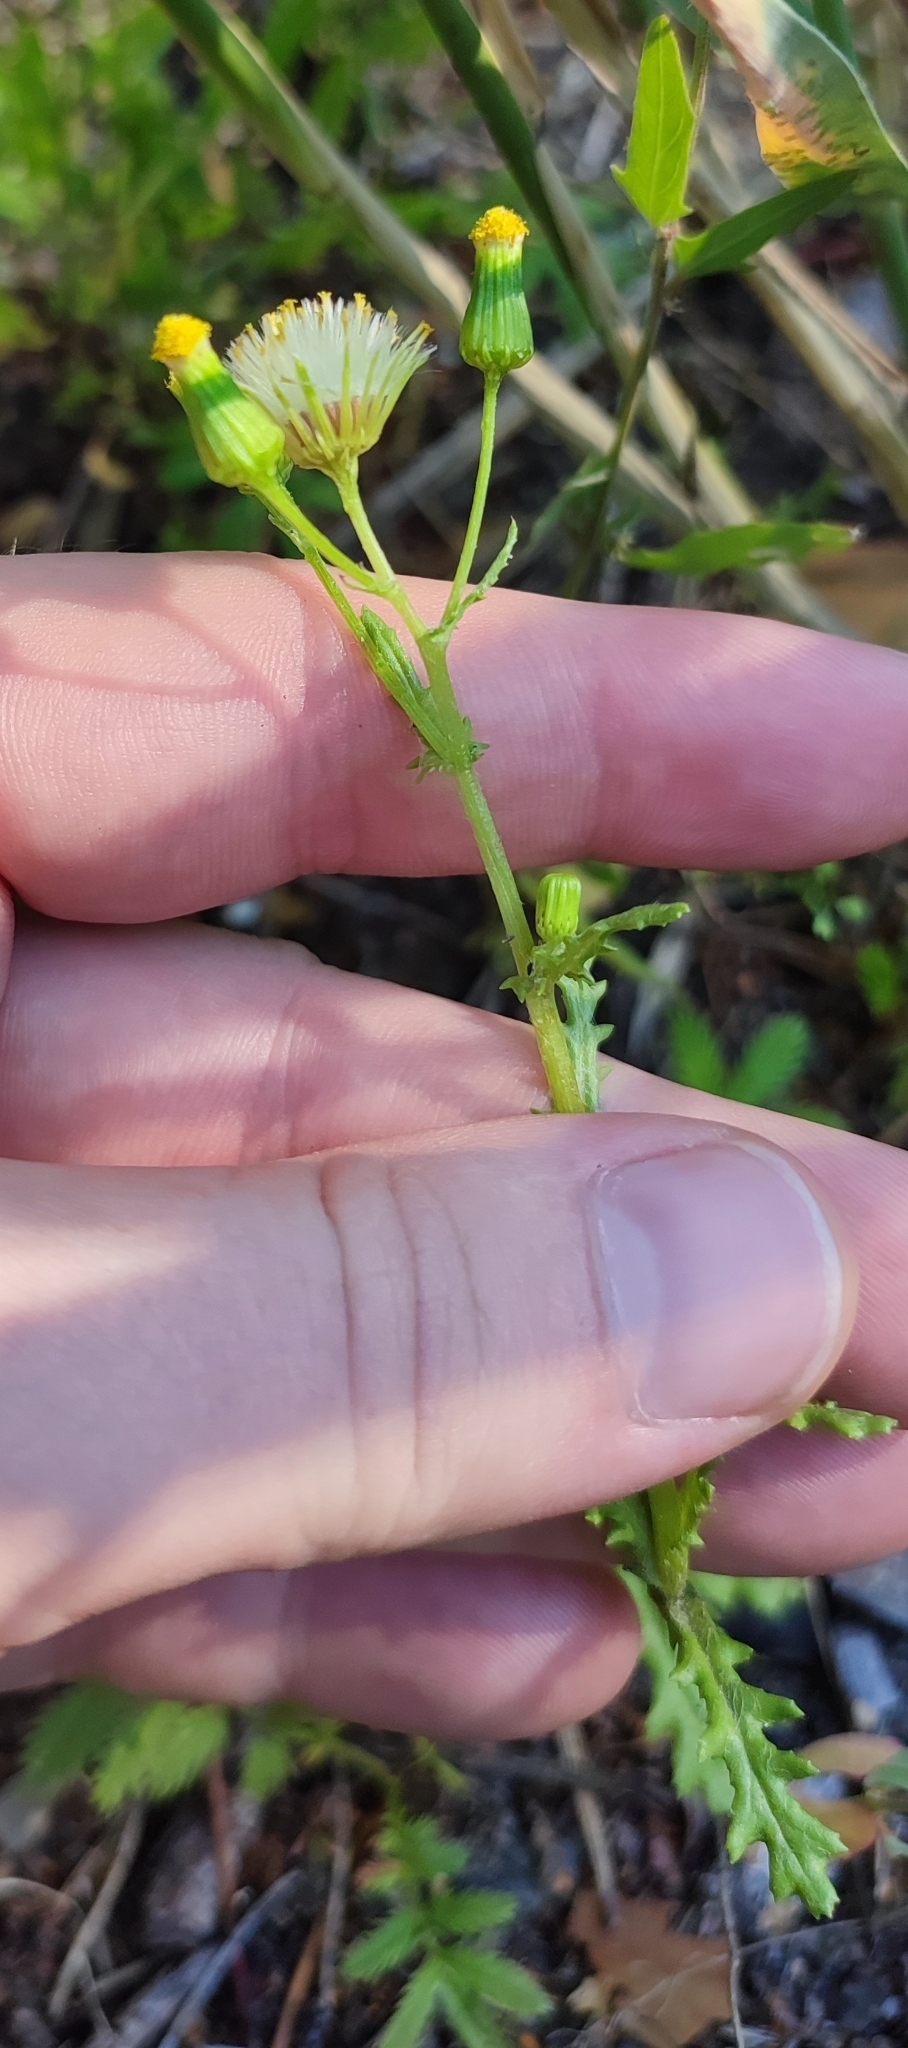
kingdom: Plantae
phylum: Tracheophyta
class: Magnoliopsida
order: Asterales
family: Asteraceae
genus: Senecio
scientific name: Senecio vulgaris
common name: Old-man-in-the-spring
